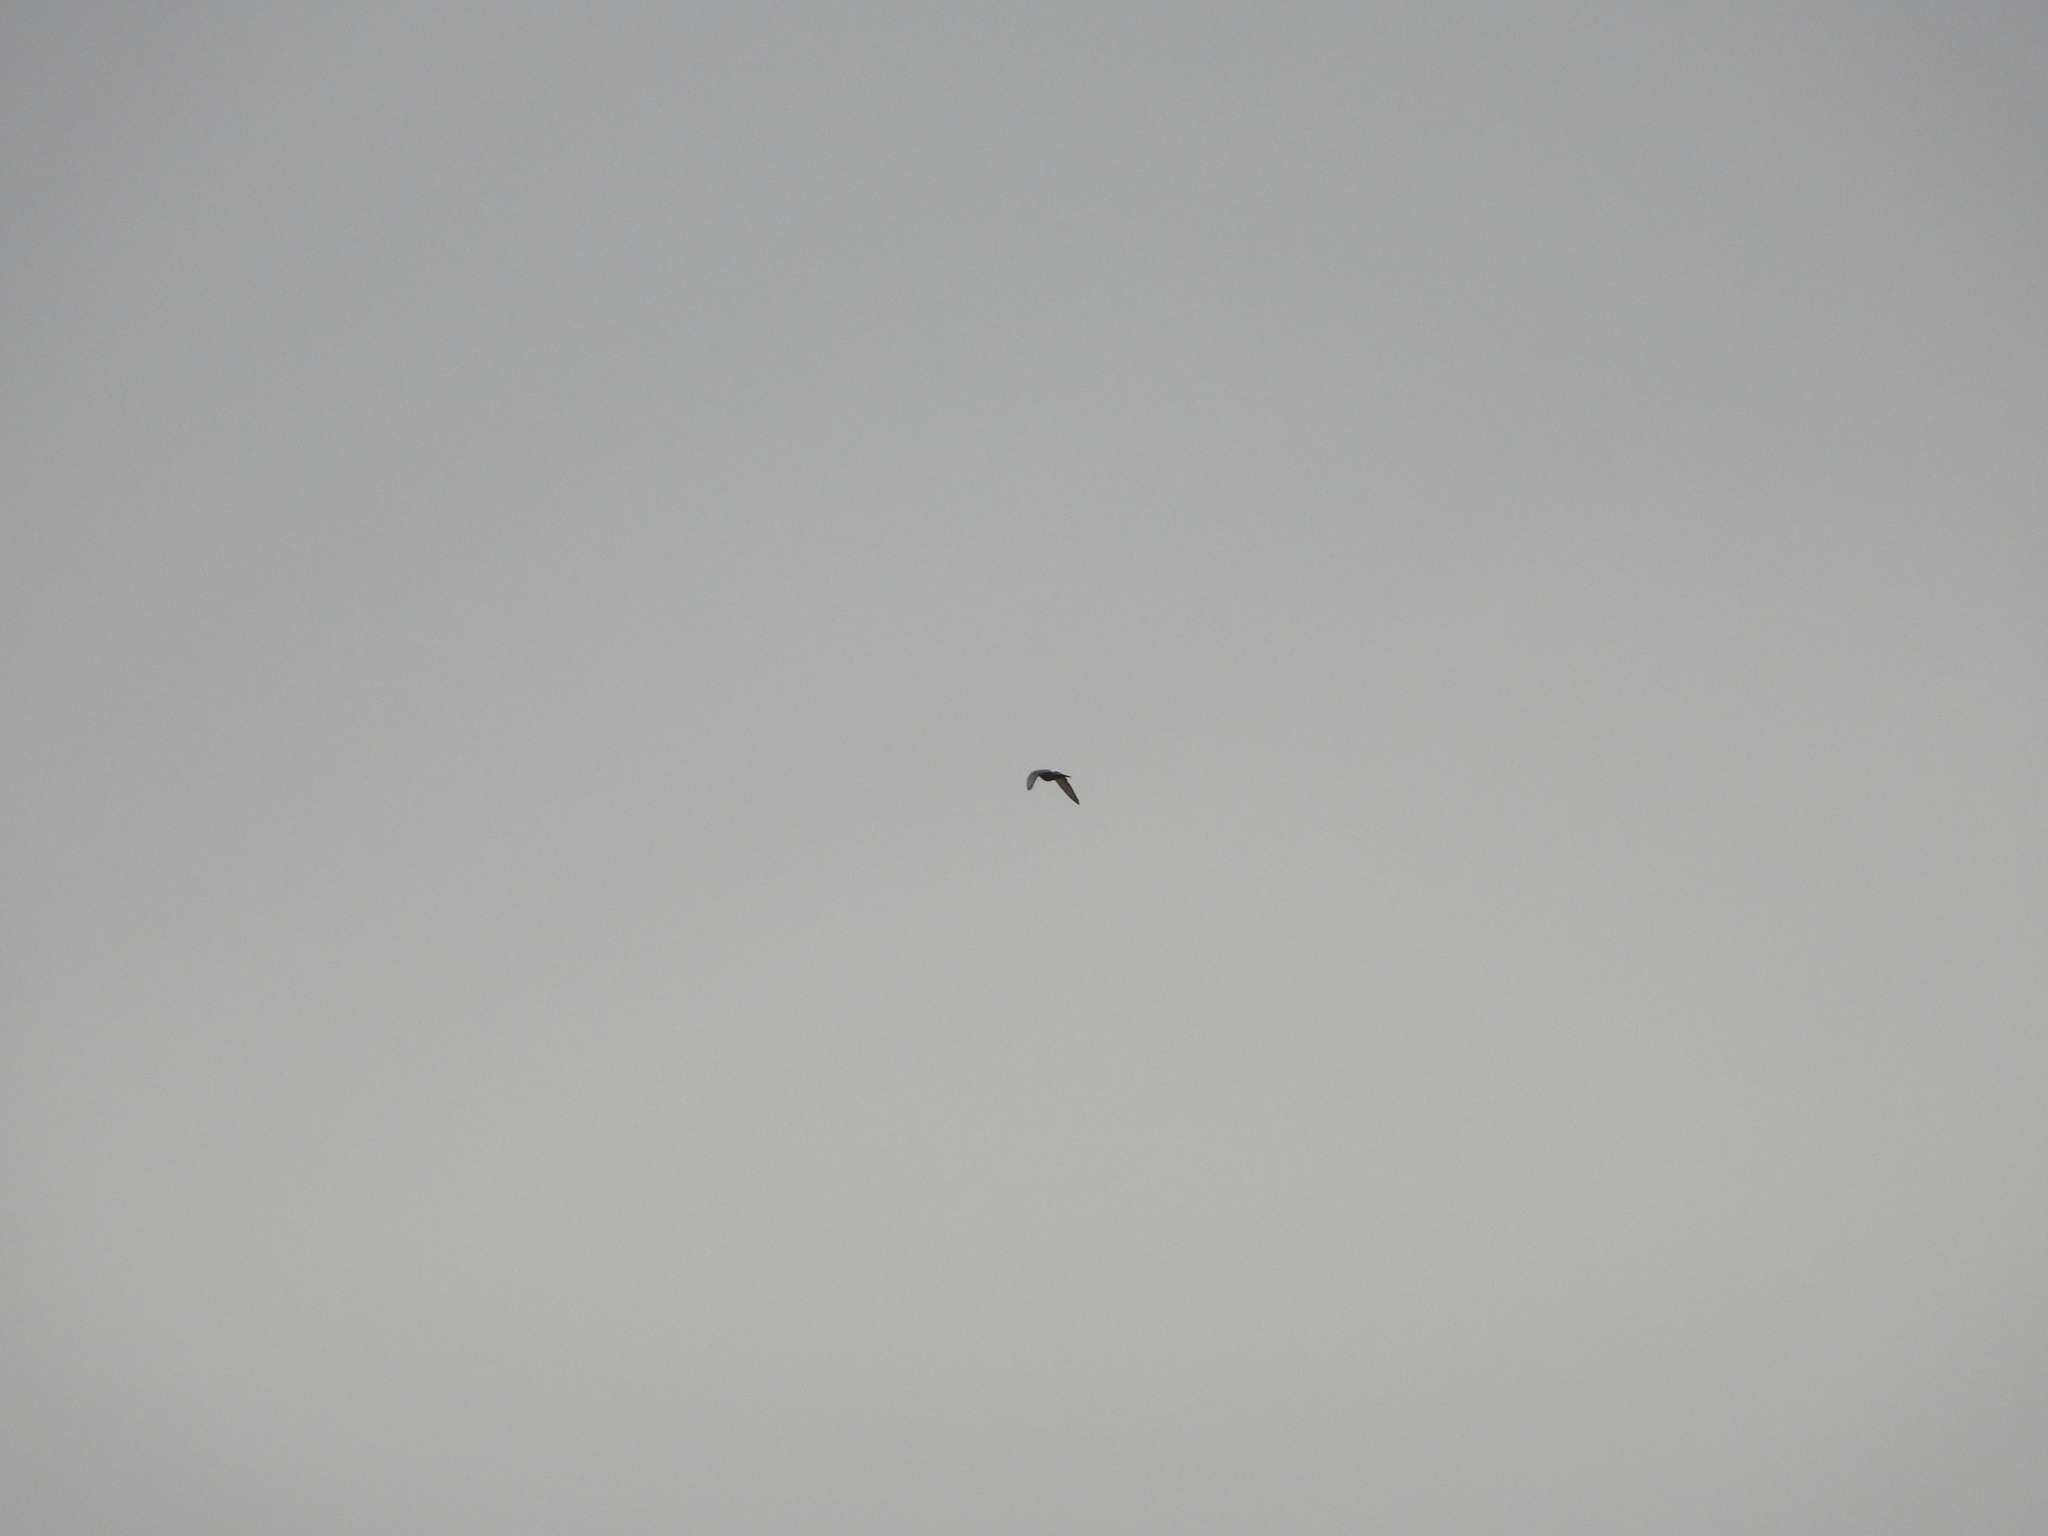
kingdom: Animalia
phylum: Chordata
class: Aves
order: Columbiformes
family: Columbidae
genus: Columba
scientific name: Columba livia
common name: Rock pigeon
